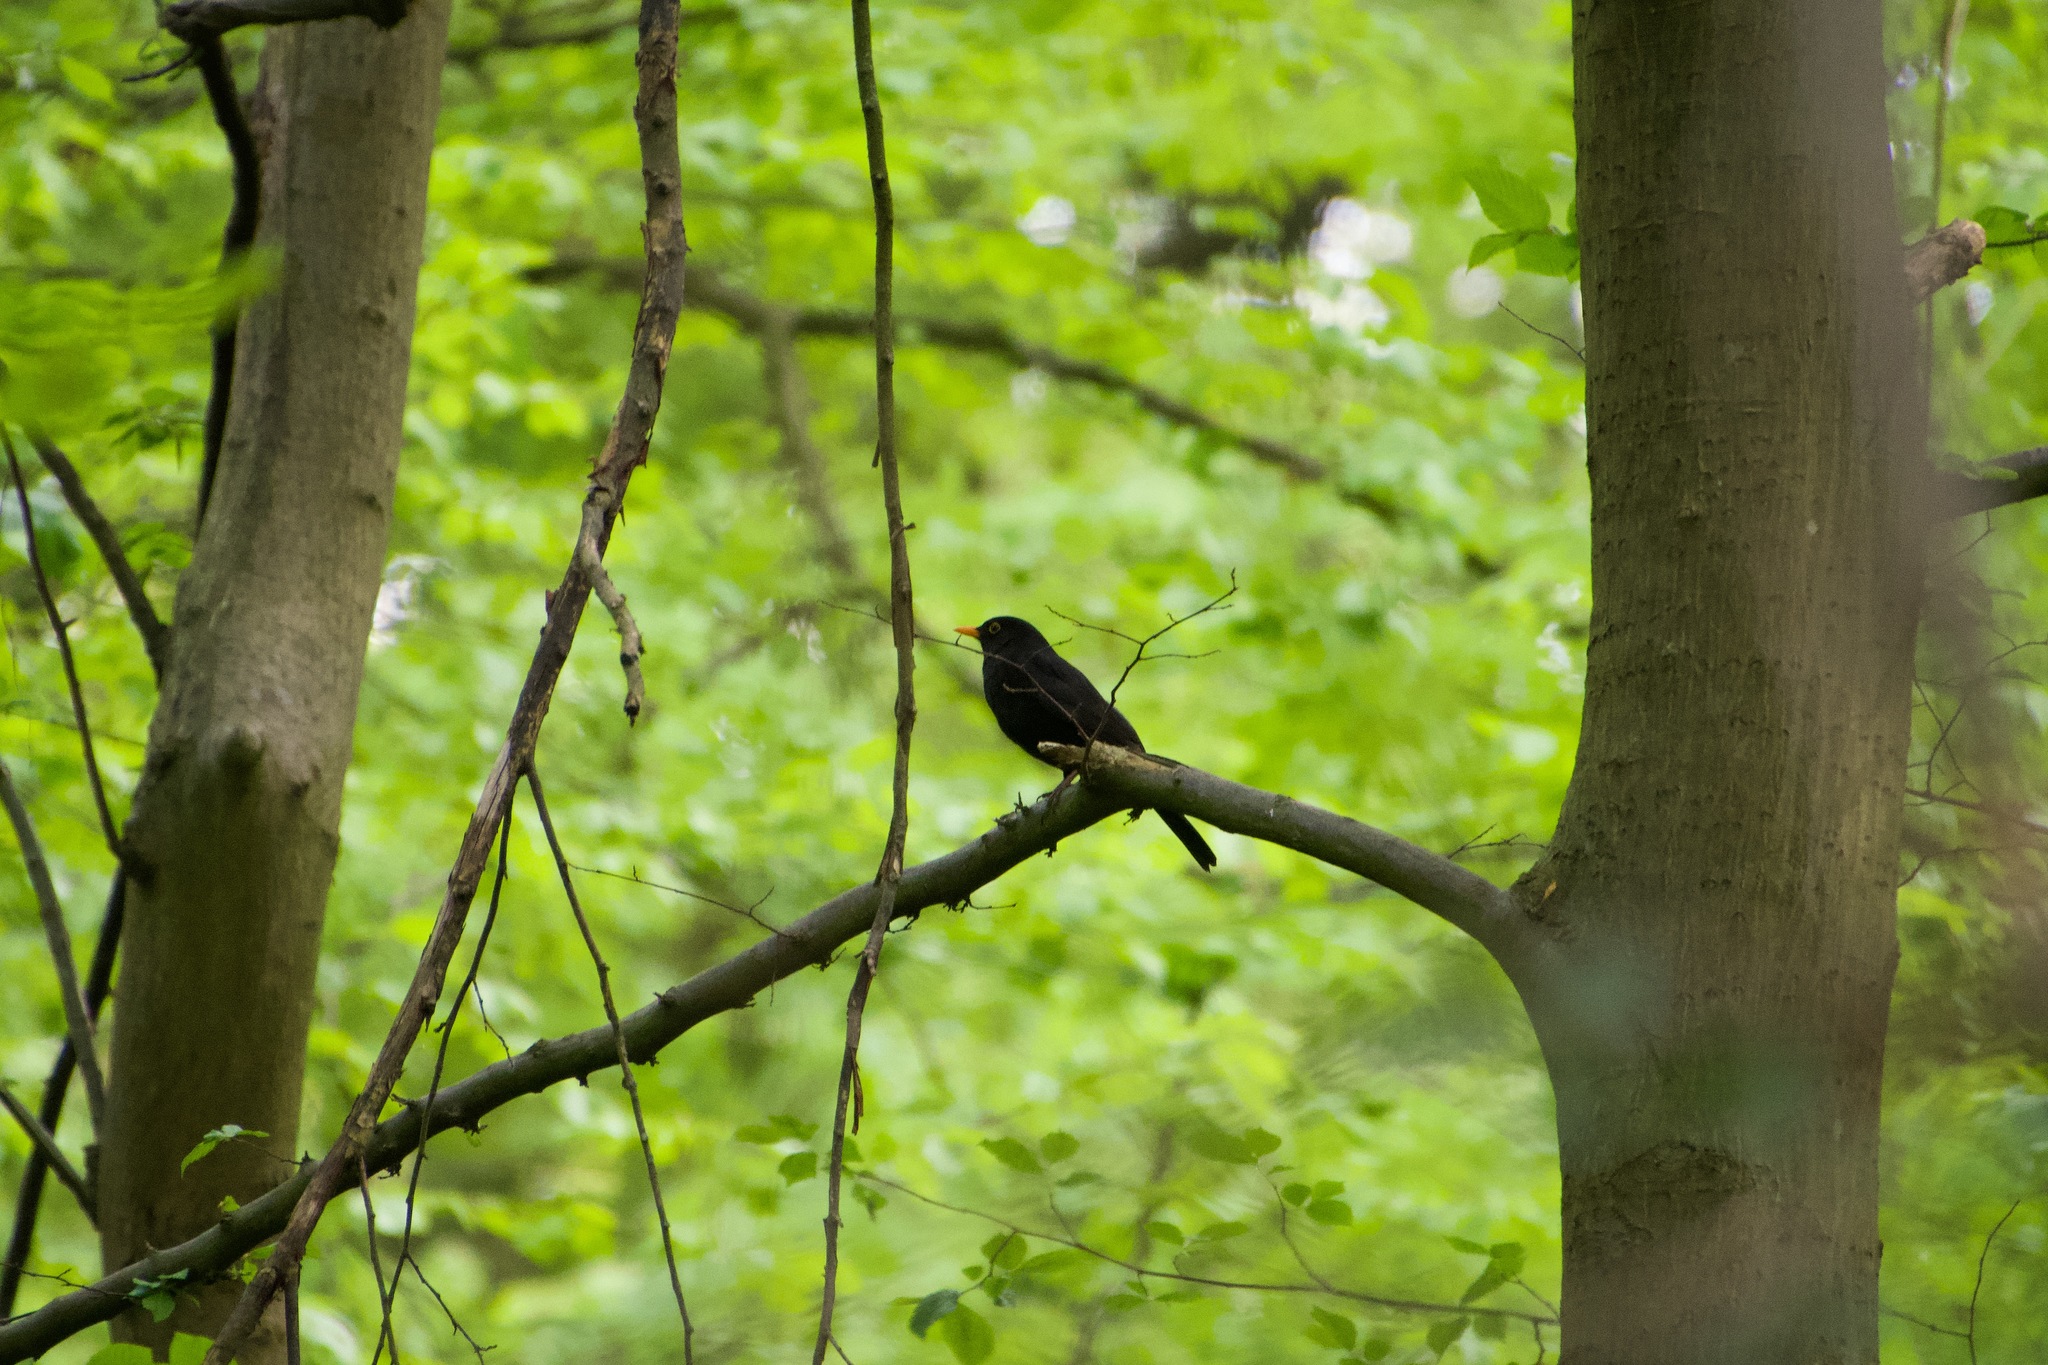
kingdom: Animalia
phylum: Chordata
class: Aves
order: Passeriformes
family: Turdidae
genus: Turdus
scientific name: Turdus merula
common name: Common blackbird
